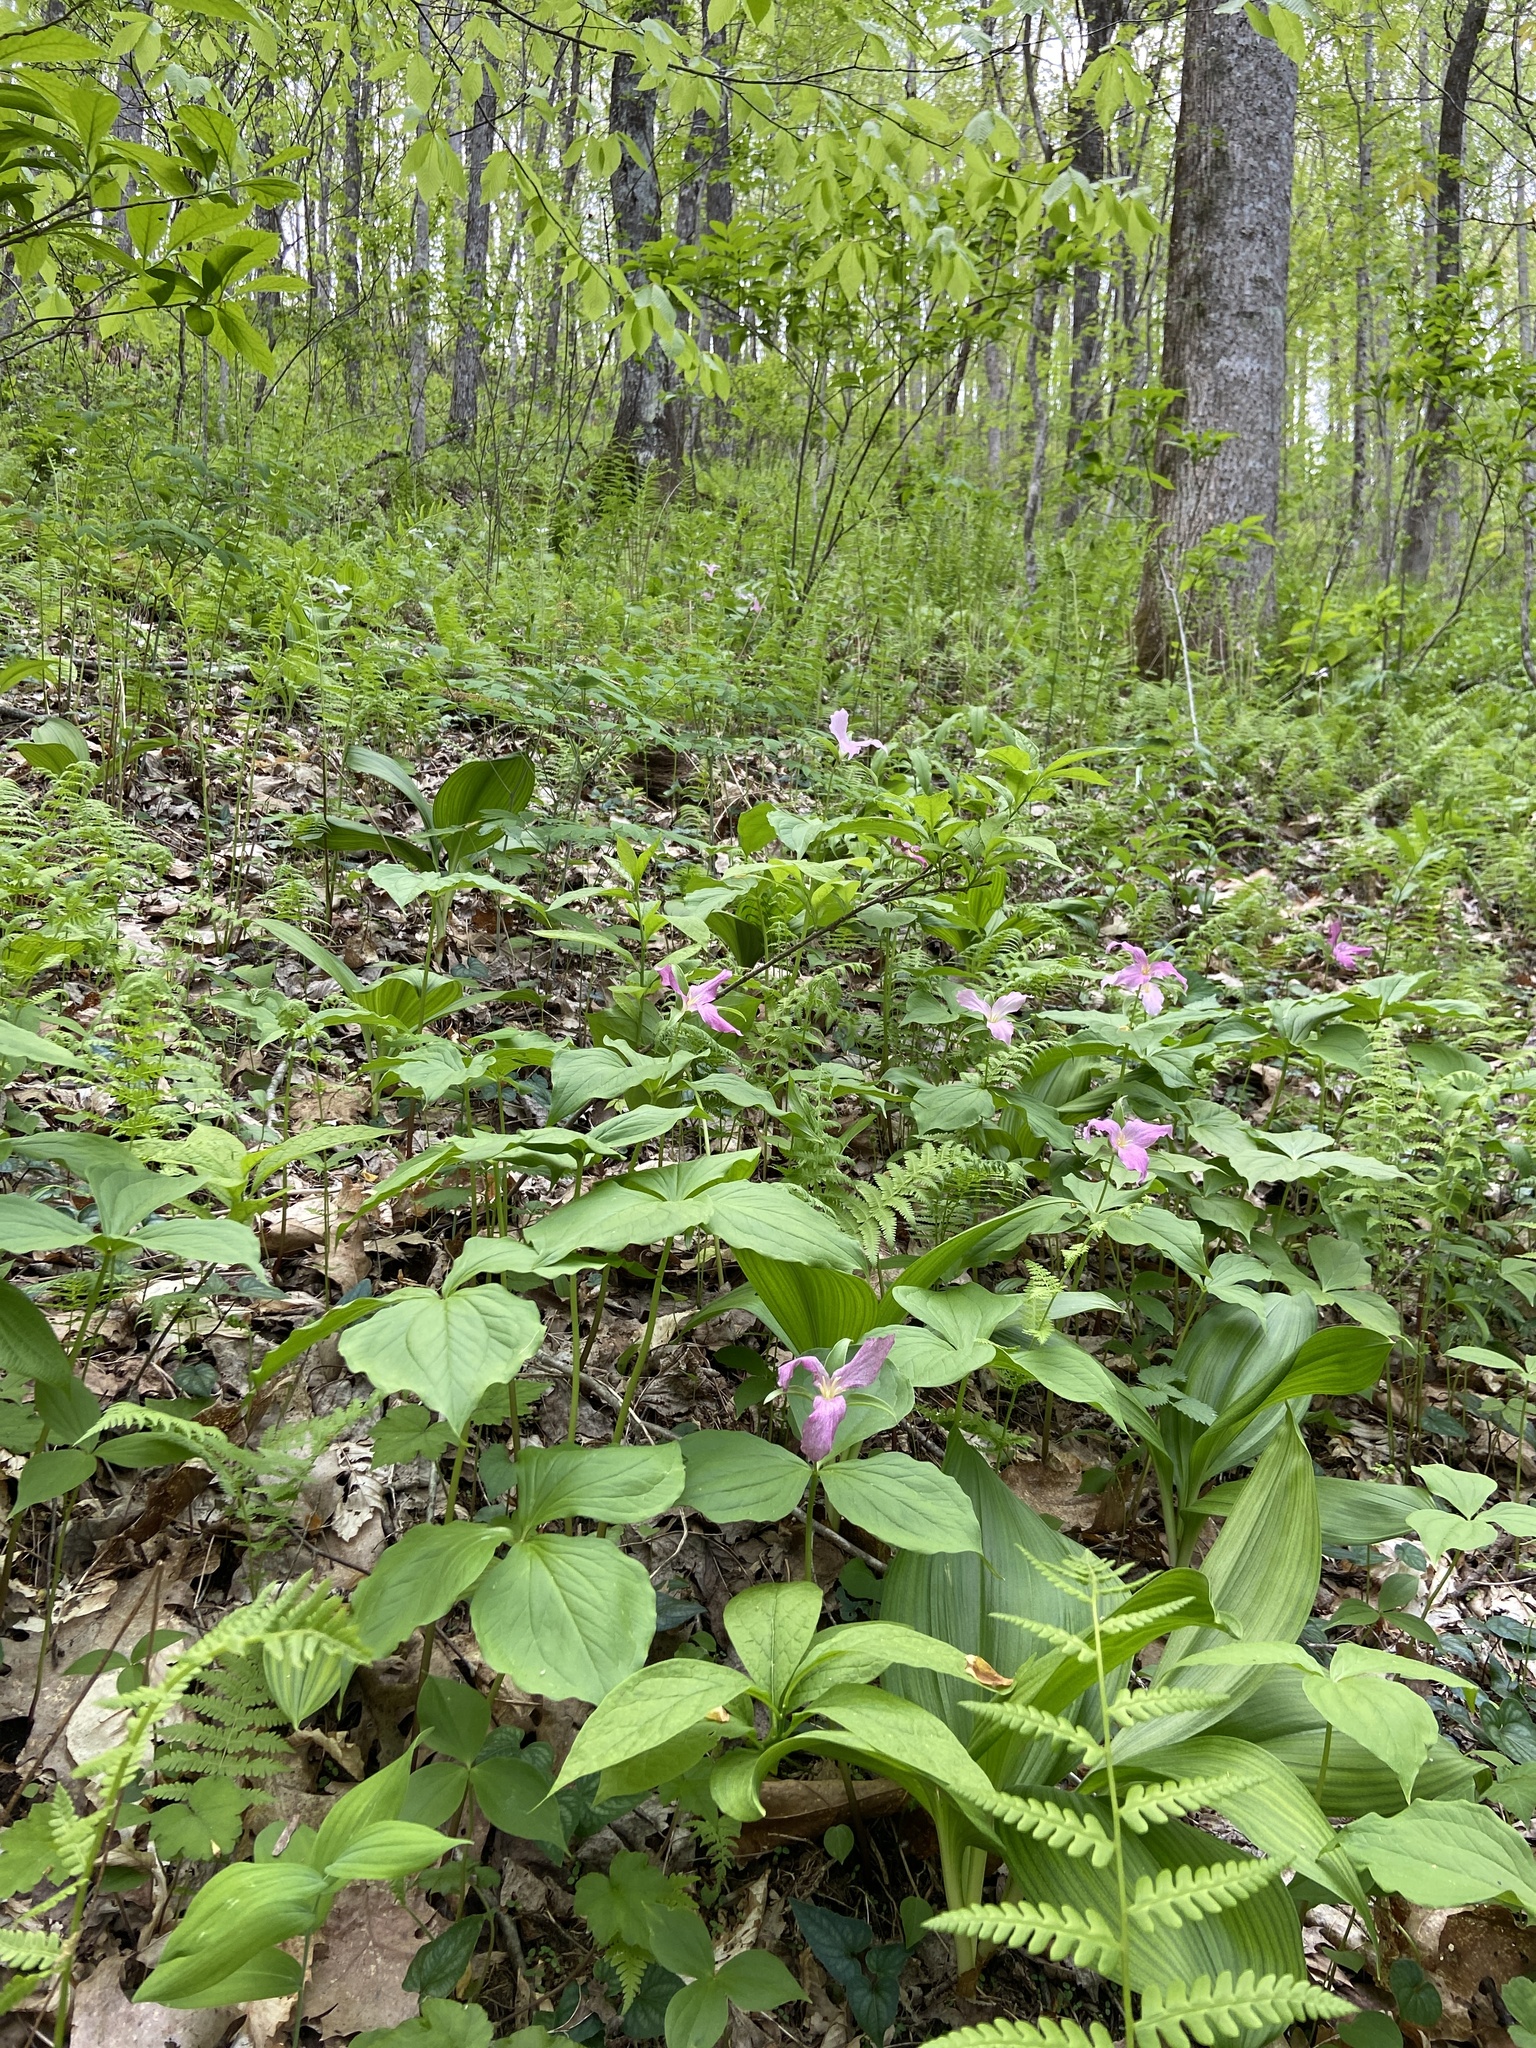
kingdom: Plantae
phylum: Tracheophyta
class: Liliopsida
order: Liliales
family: Melanthiaceae
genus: Trillium
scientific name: Trillium grandiflorum
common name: Great white trillium
